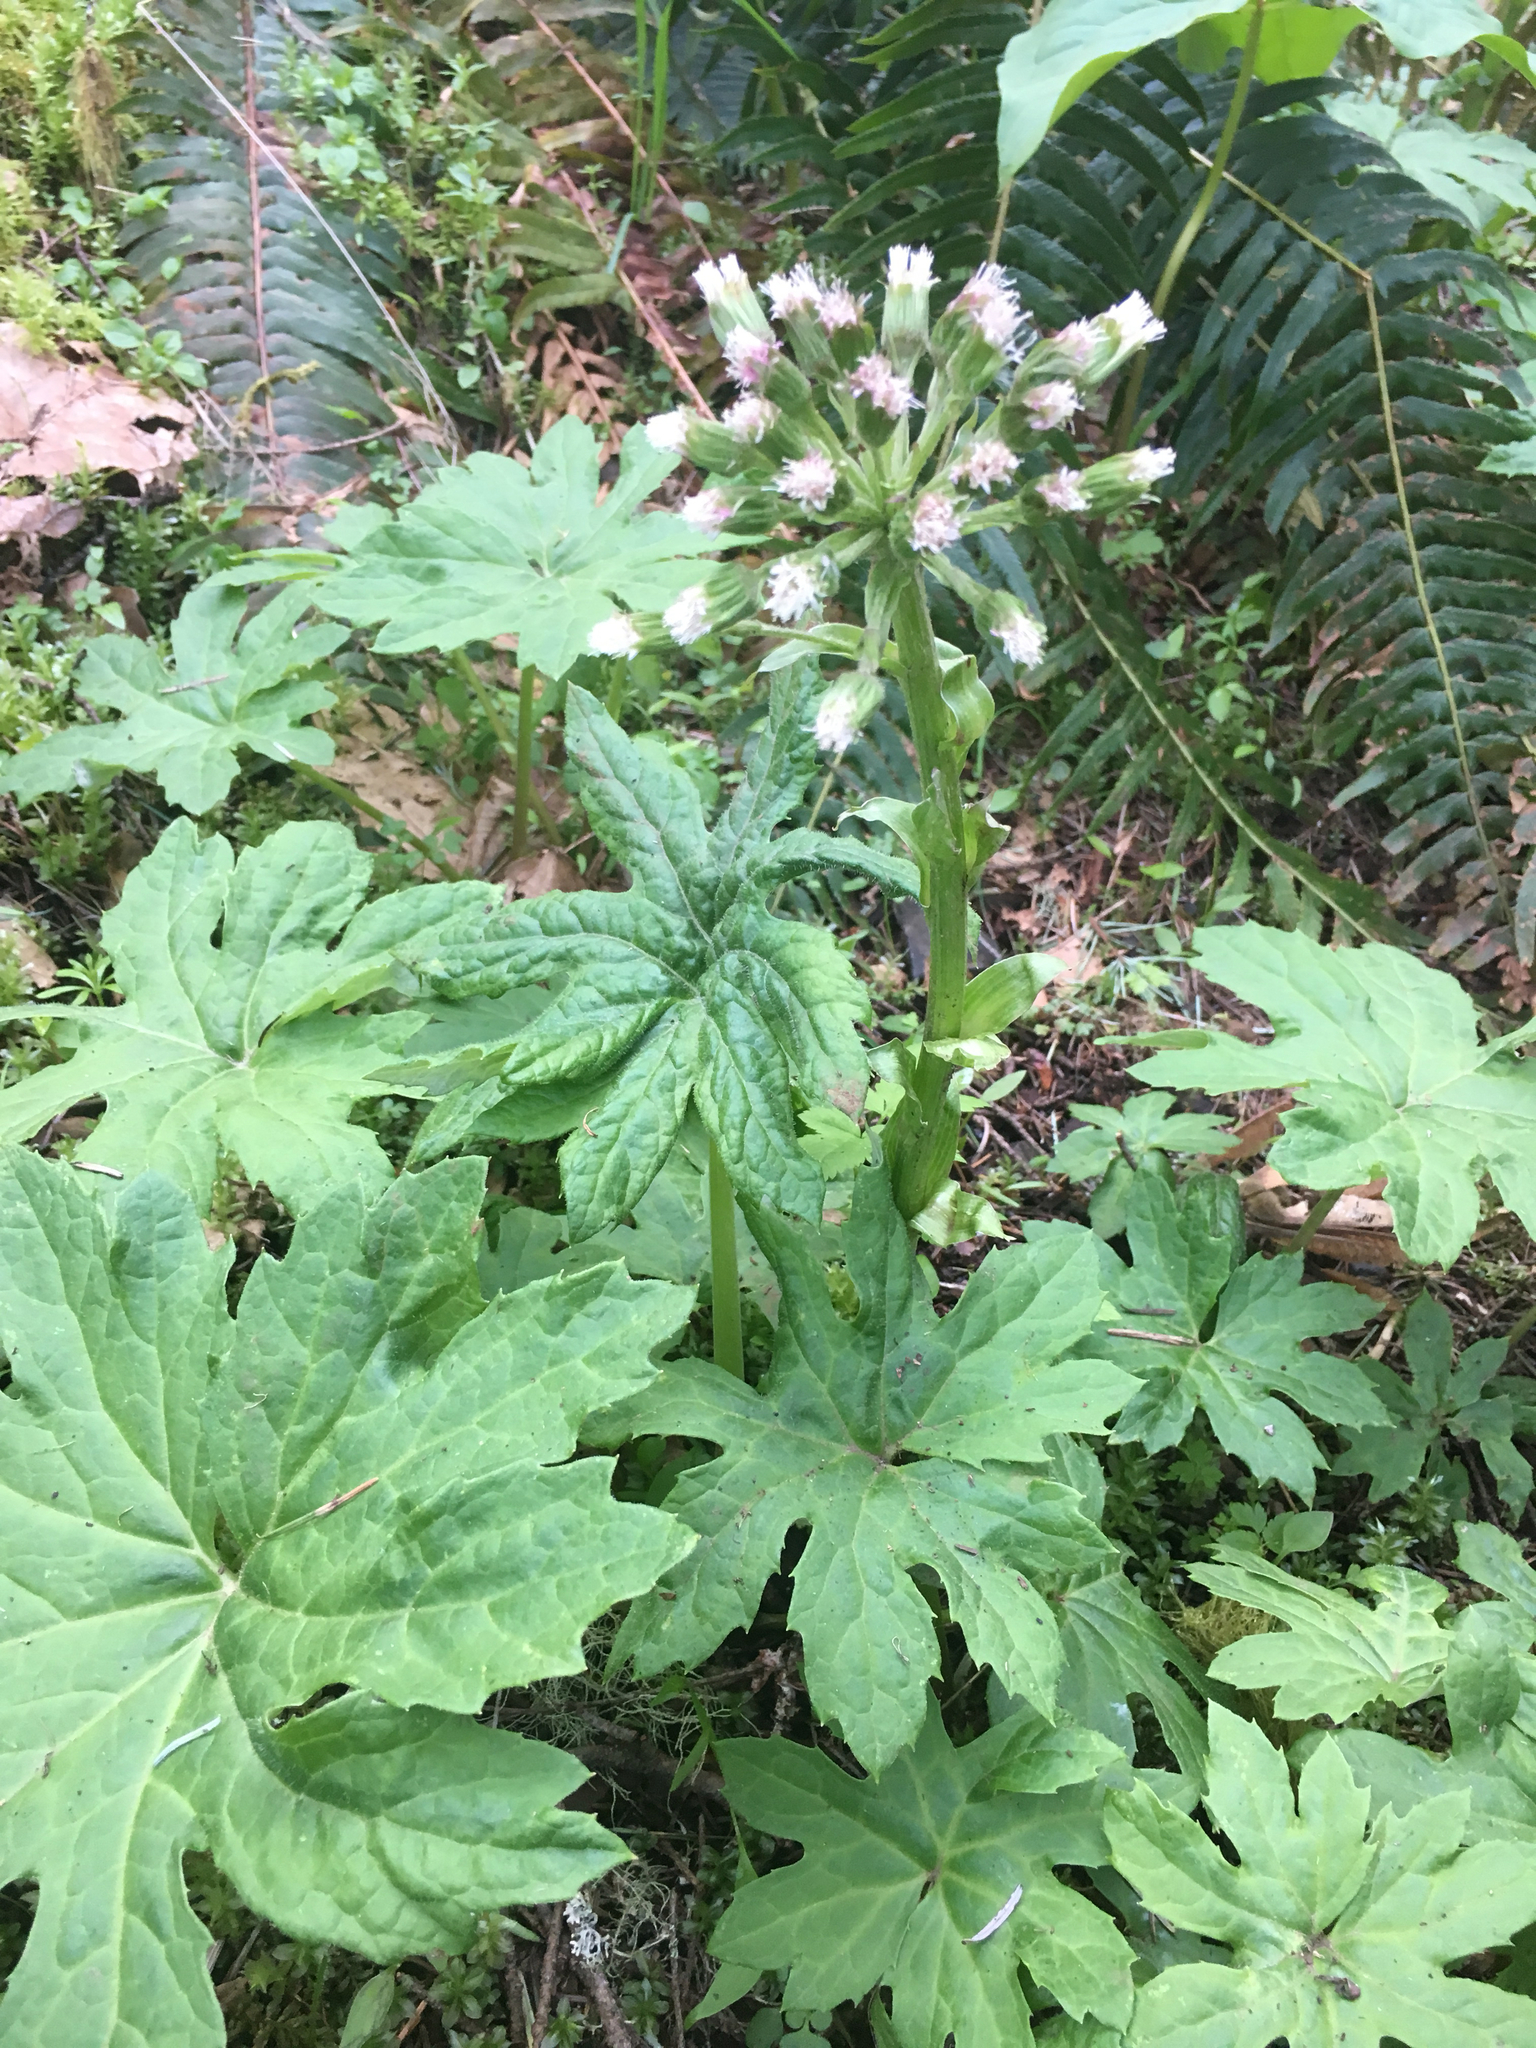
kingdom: Plantae
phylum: Tracheophyta
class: Magnoliopsida
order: Asterales
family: Asteraceae
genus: Petasites
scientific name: Petasites frigidus
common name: Arctic butterbur
